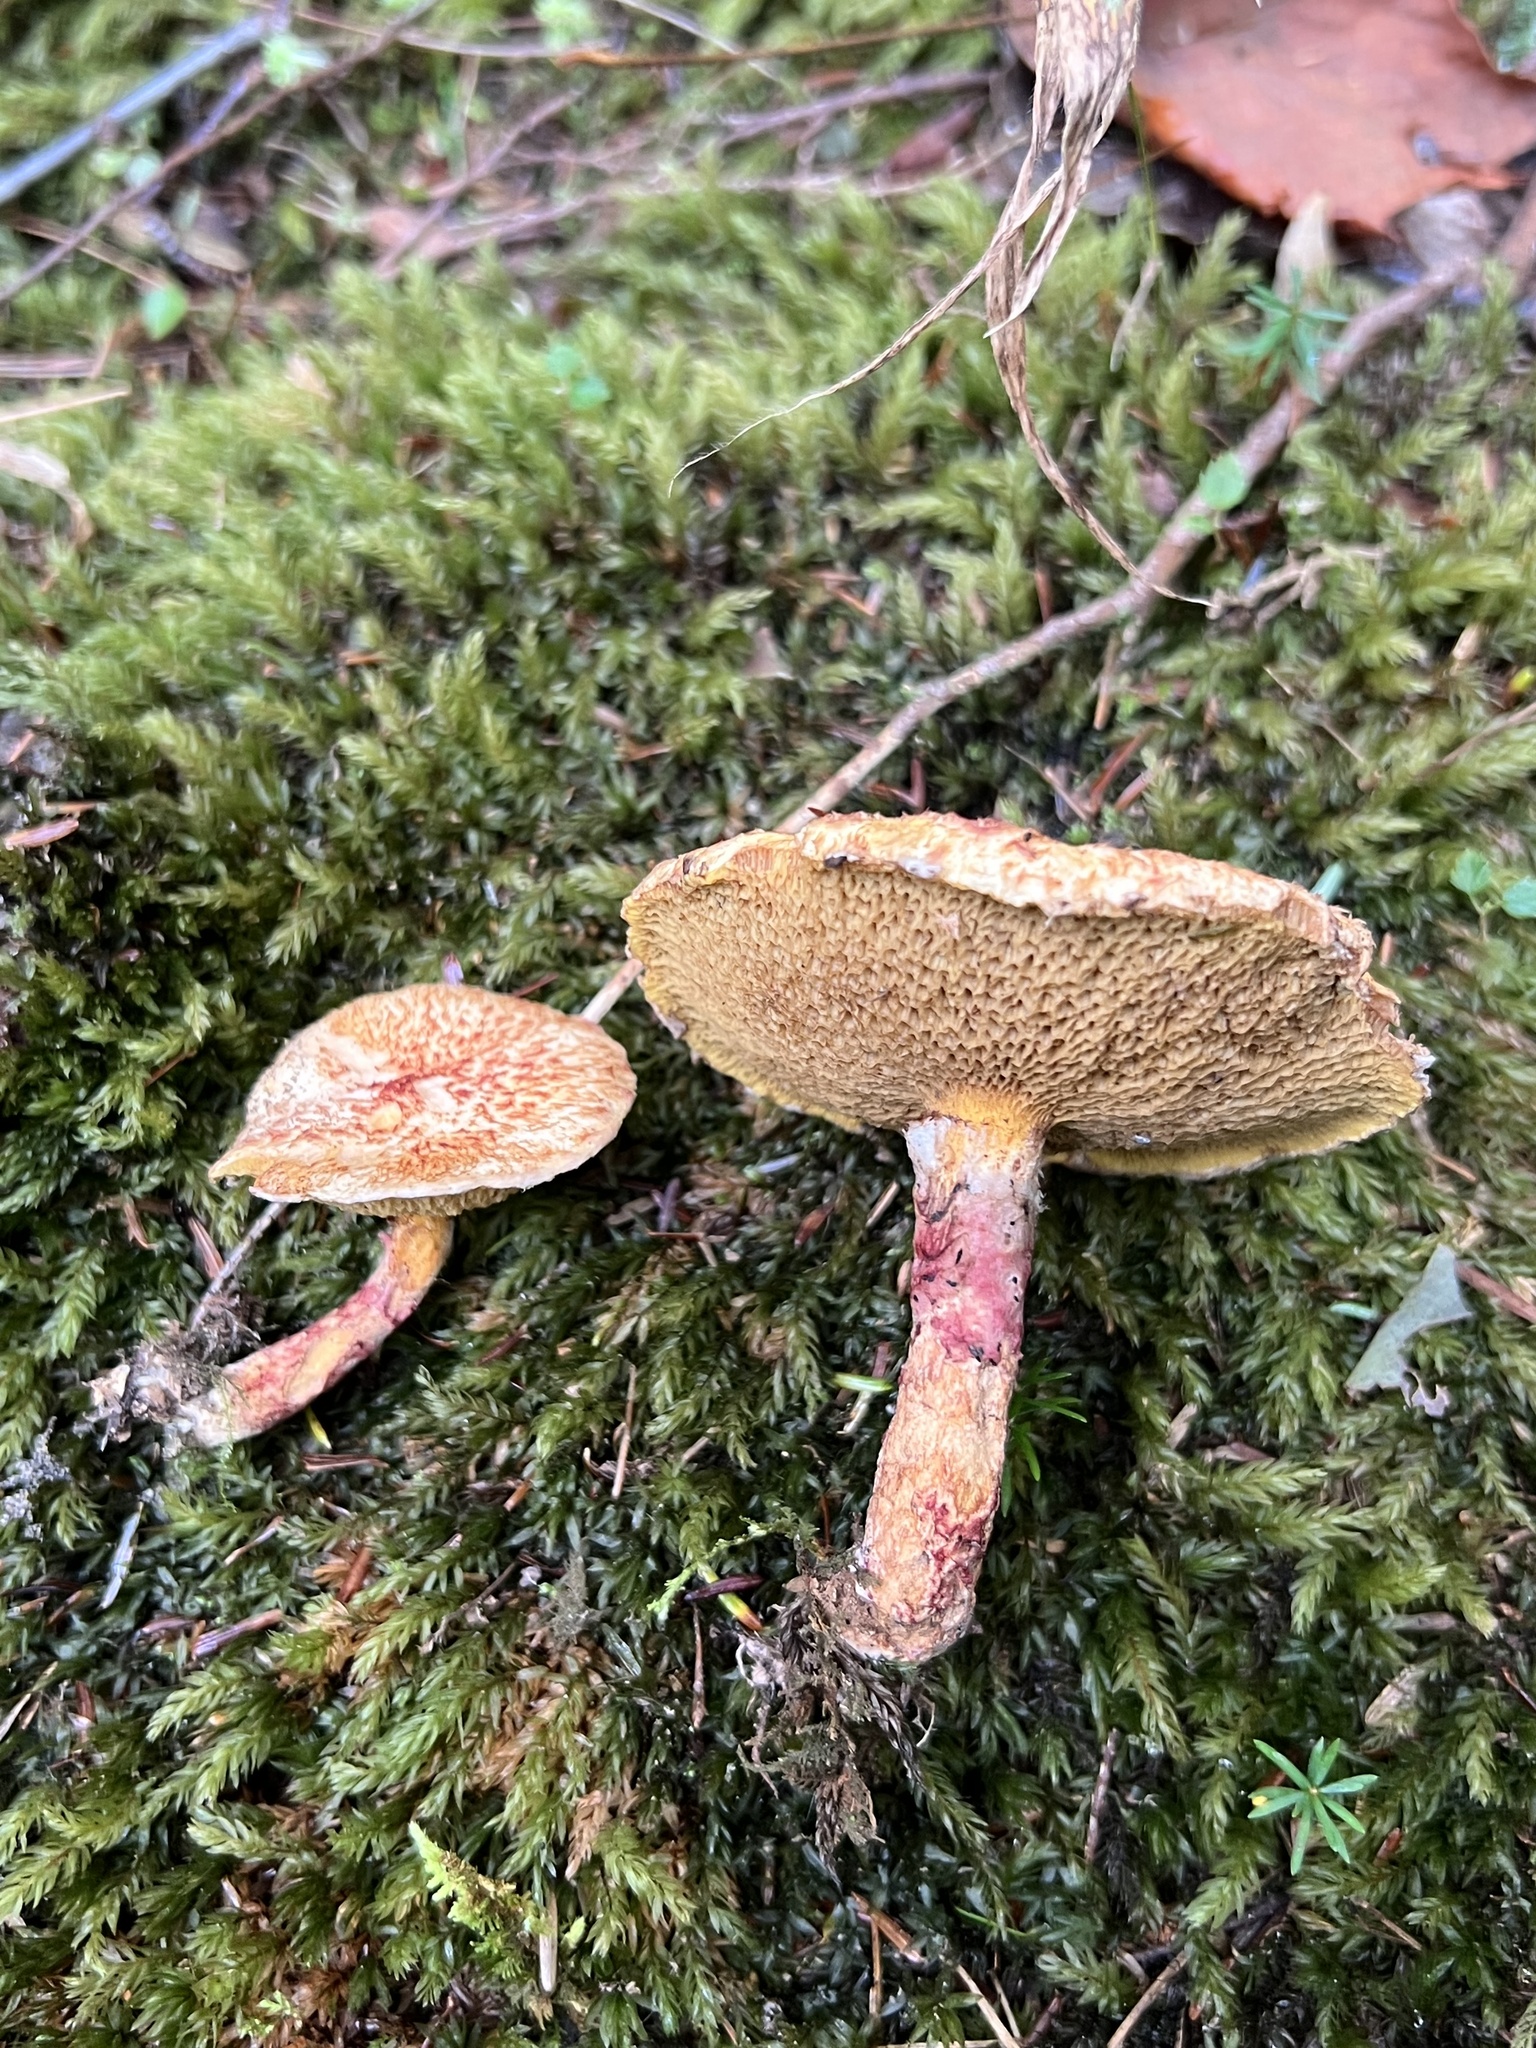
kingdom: Fungi
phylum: Basidiomycota
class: Agaricomycetes
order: Boletales
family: Suillaceae
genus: Suillus
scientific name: Suillus spraguei
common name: Painted suillus
